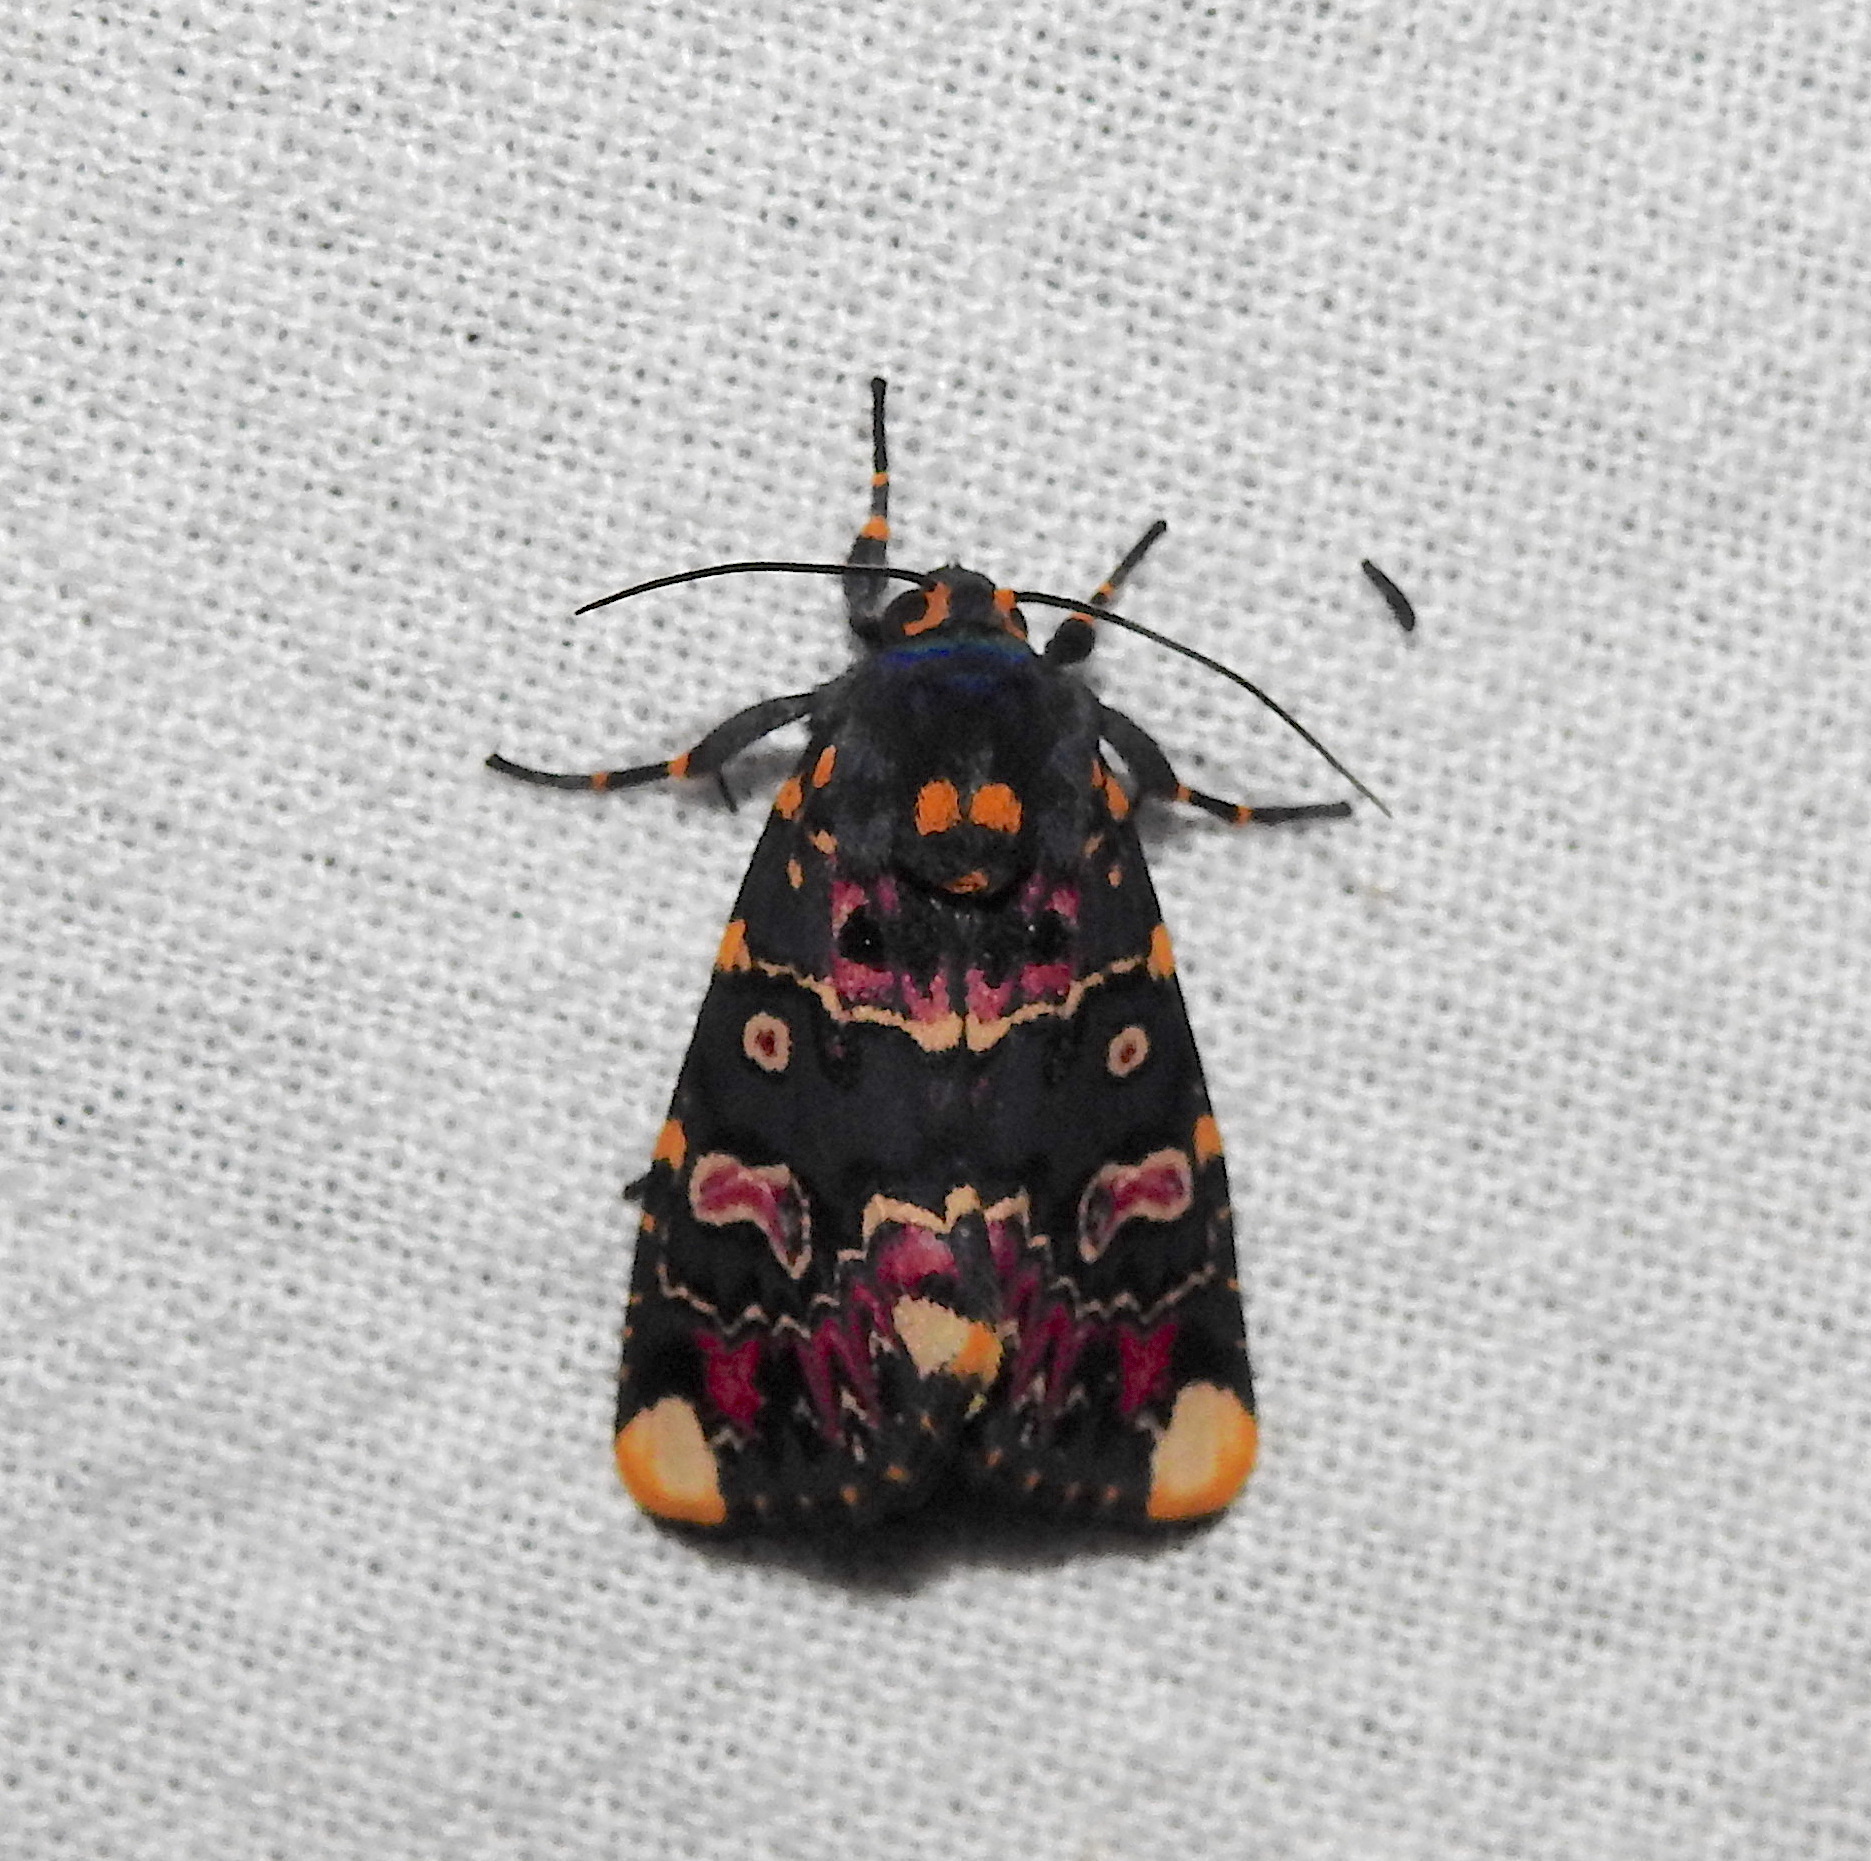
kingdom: Animalia
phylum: Arthropoda
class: Insecta
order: Lepidoptera
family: Noctuidae
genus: Polytela
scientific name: Polytela gloriosae
